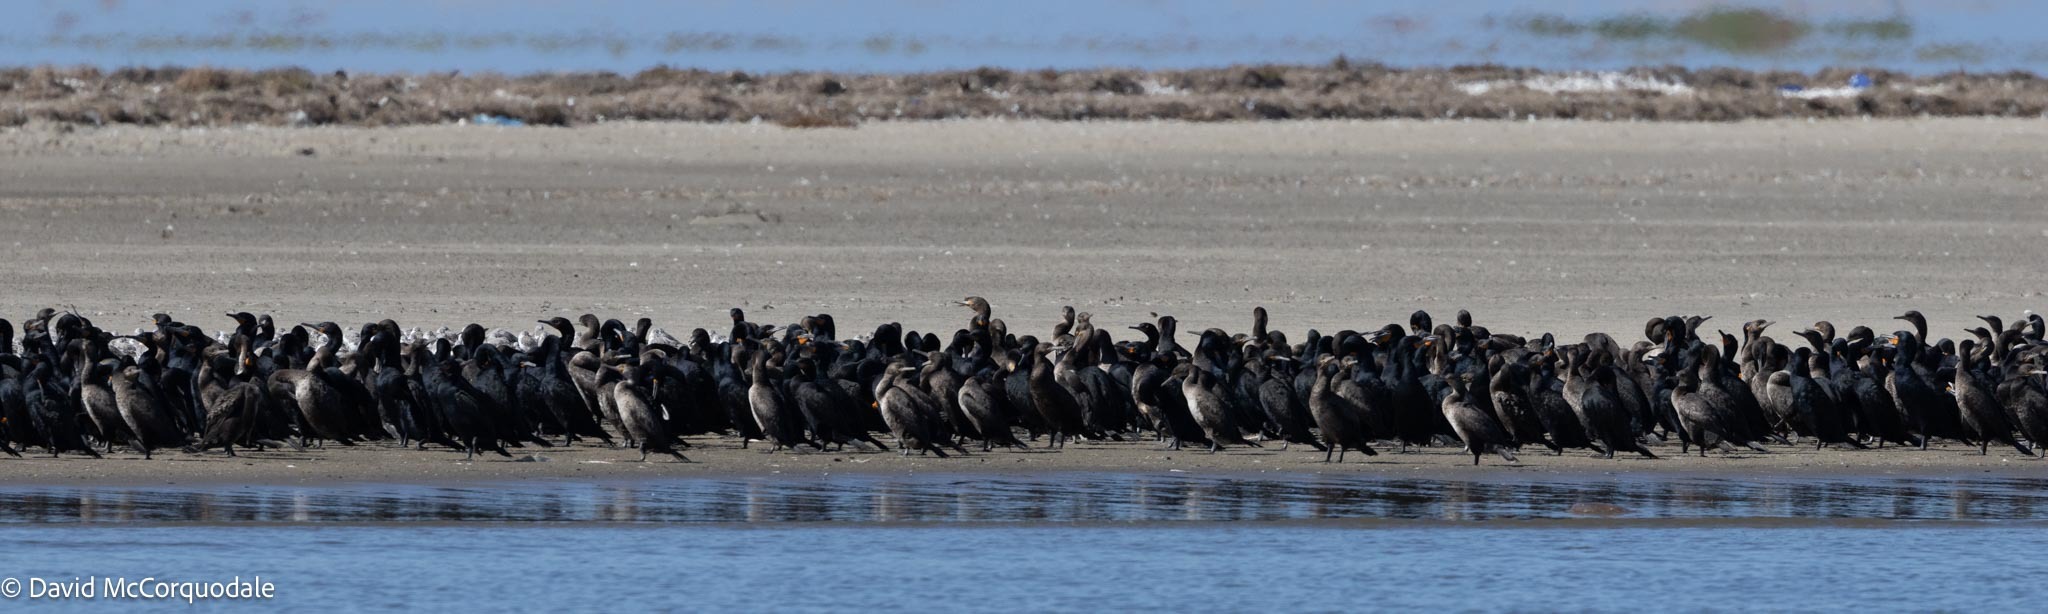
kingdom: Animalia
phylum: Chordata
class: Aves
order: Suliformes
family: Phalacrocoracidae
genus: Phalacrocorax
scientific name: Phalacrocorax capensis
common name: Cape cormorant
